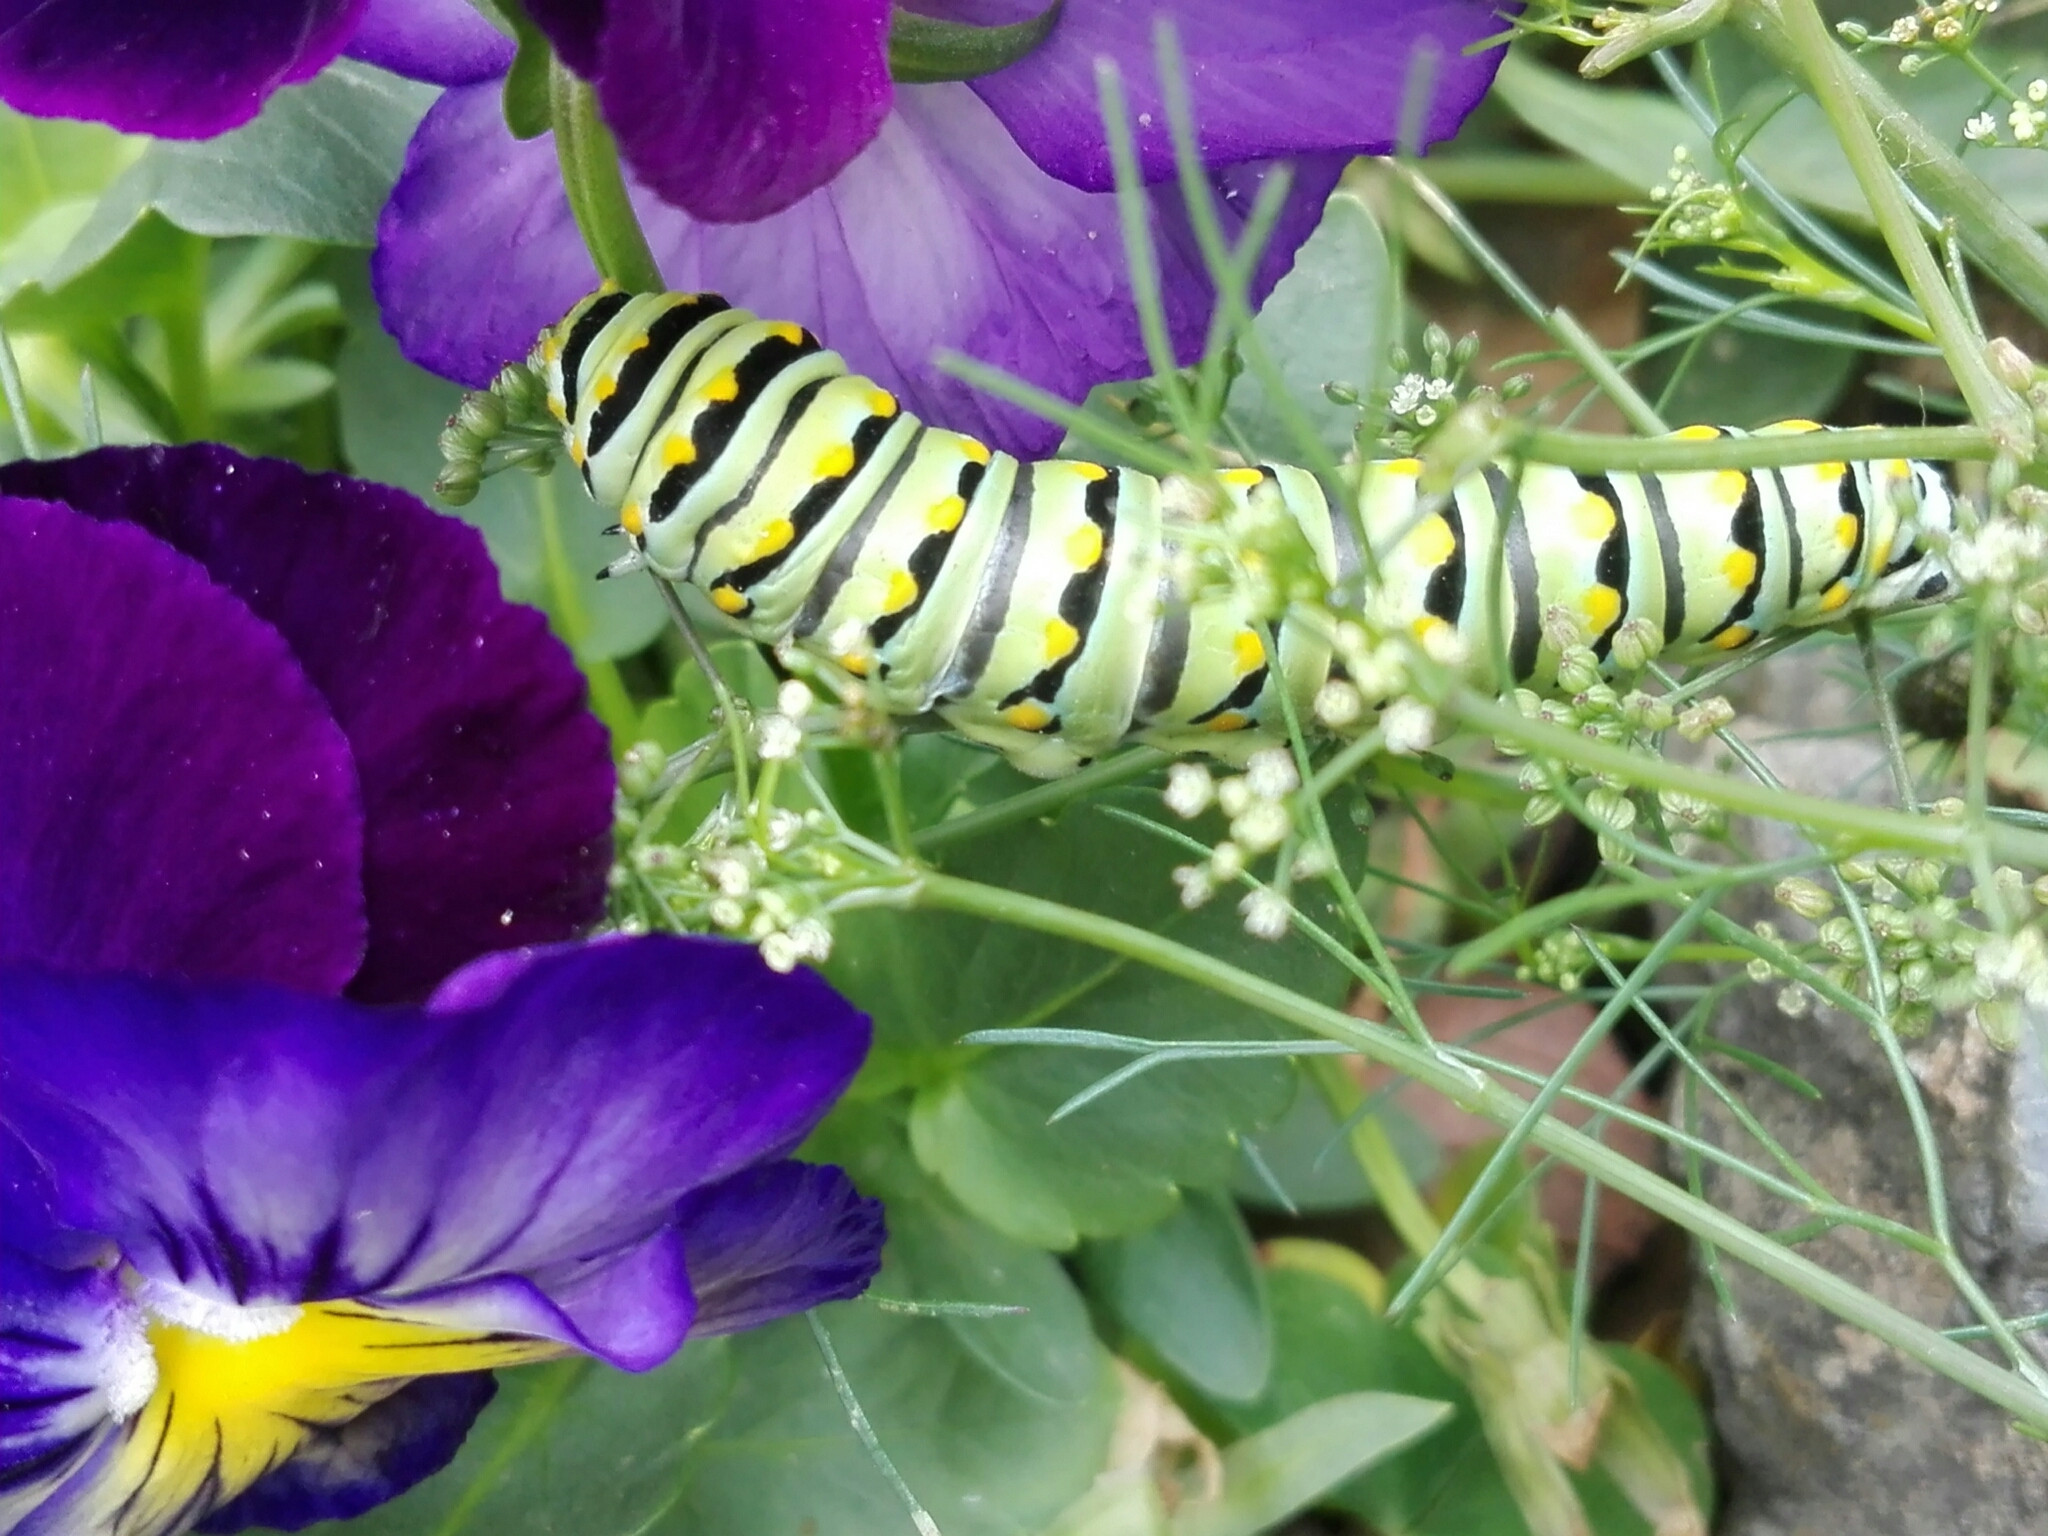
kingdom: Animalia
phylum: Arthropoda
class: Insecta
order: Lepidoptera
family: Papilionidae
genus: Papilio
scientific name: Papilio polyxenes
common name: Black swallowtail
